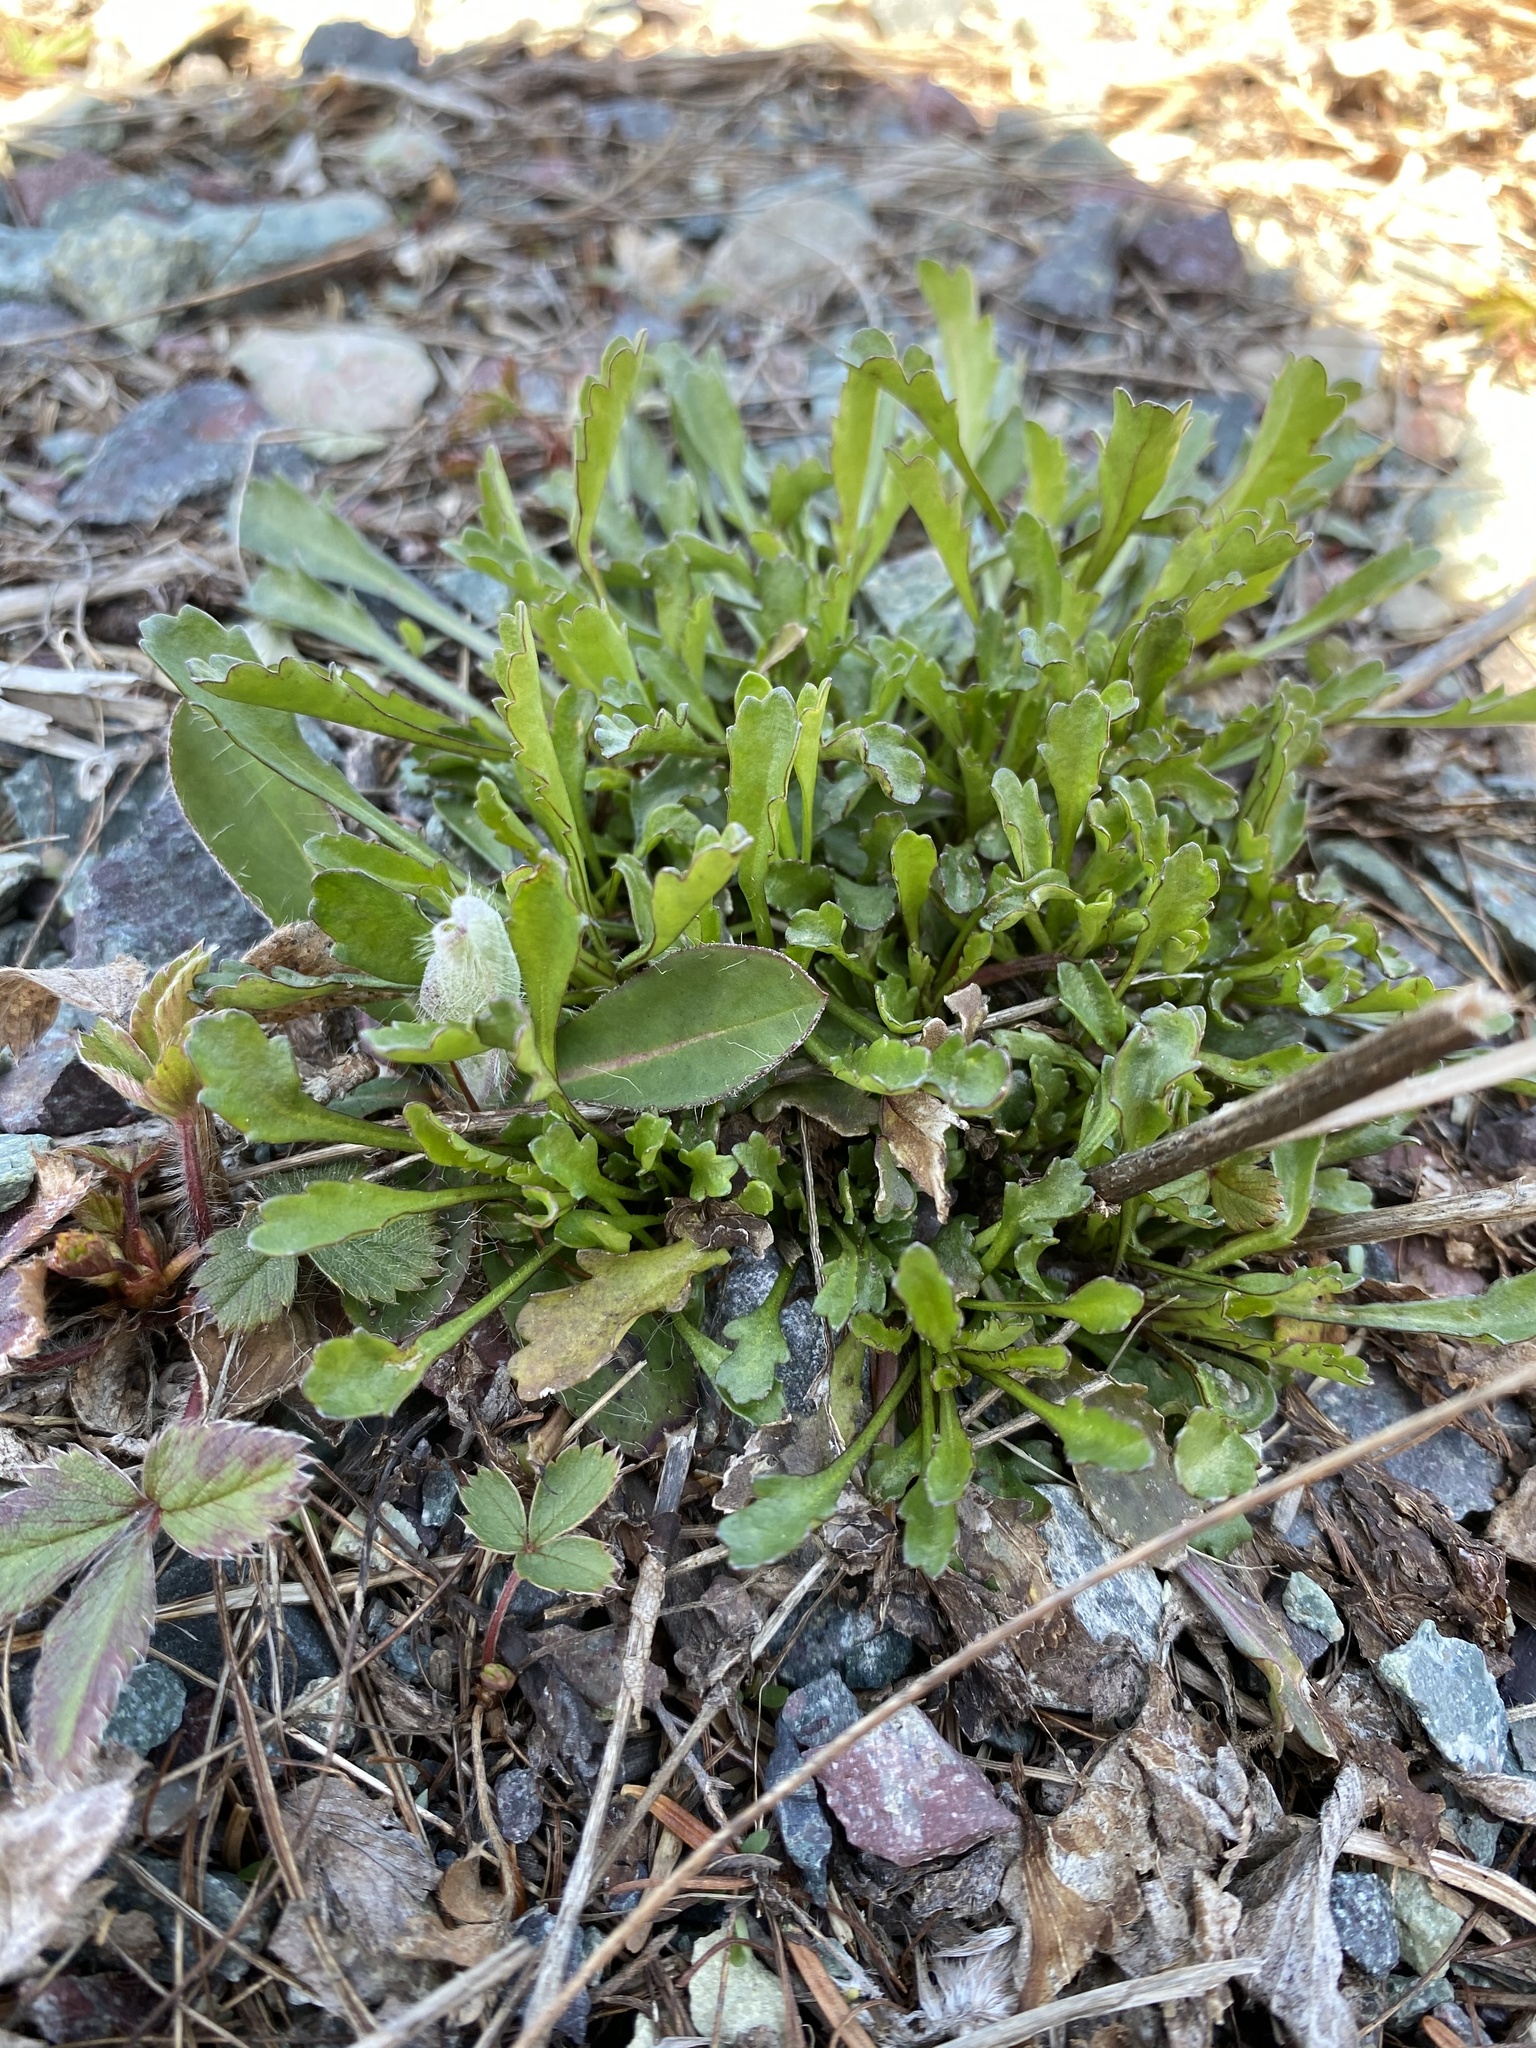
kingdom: Plantae
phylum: Tracheophyta
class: Magnoliopsida
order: Asterales
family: Asteraceae
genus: Leucanthemum
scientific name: Leucanthemum vulgare
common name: Oxeye daisy
